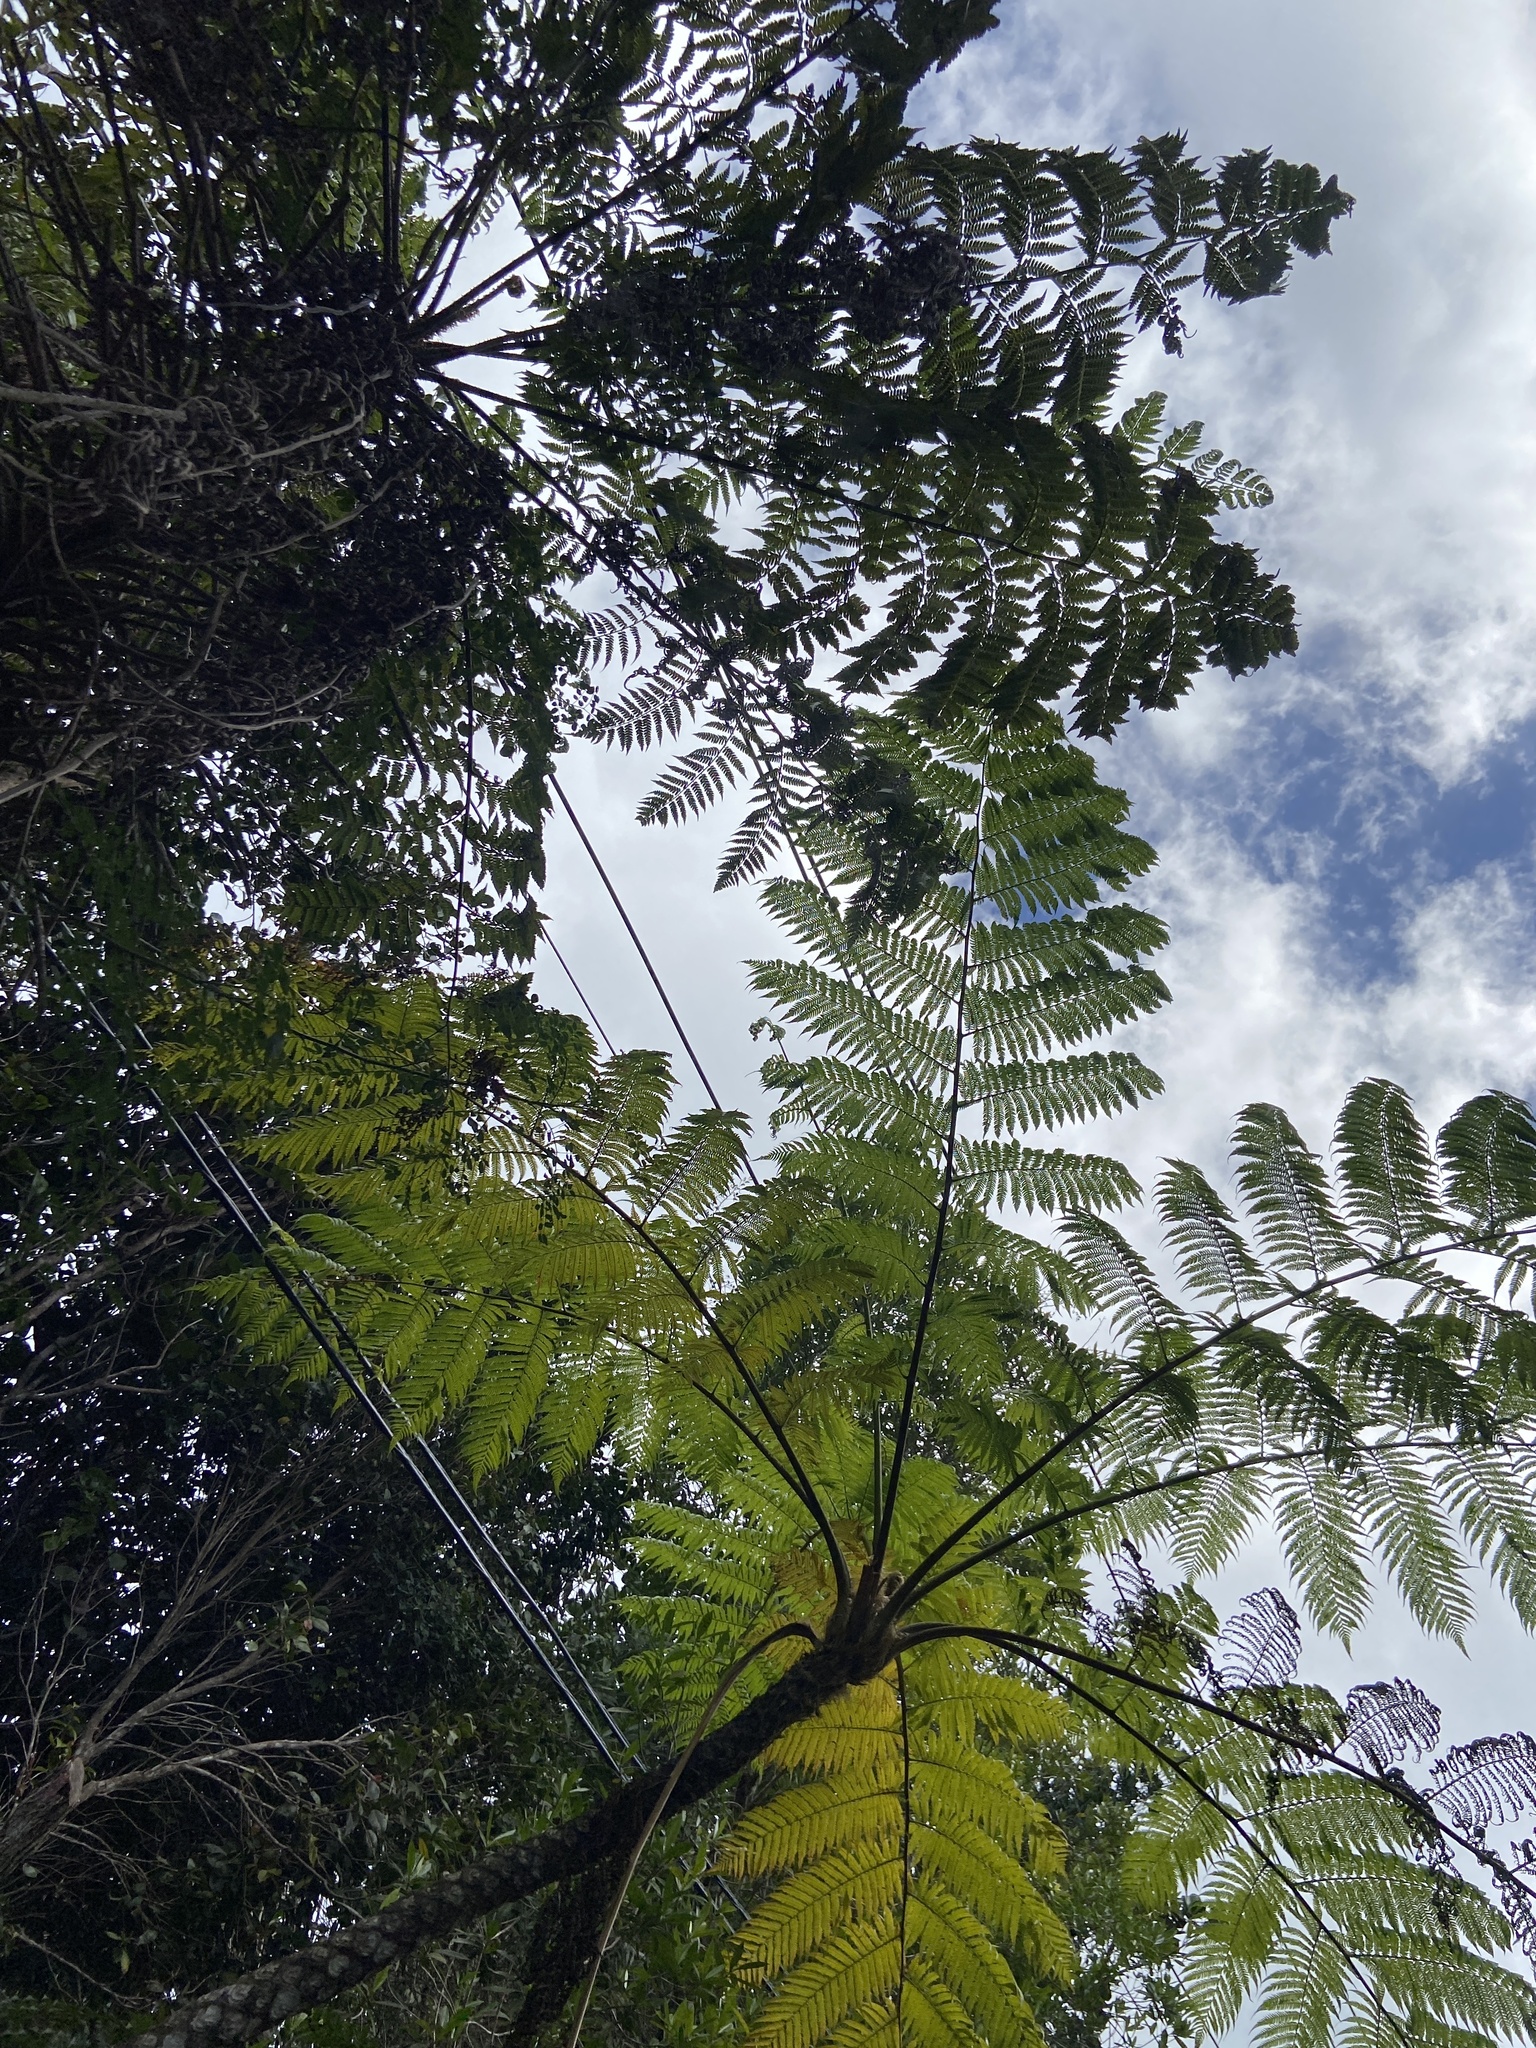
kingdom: Plantae
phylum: Tracheophyta
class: Polypodiopsida
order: Cyatheales
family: Cyatheaceae
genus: Cyathea
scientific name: Cyathea parvula
